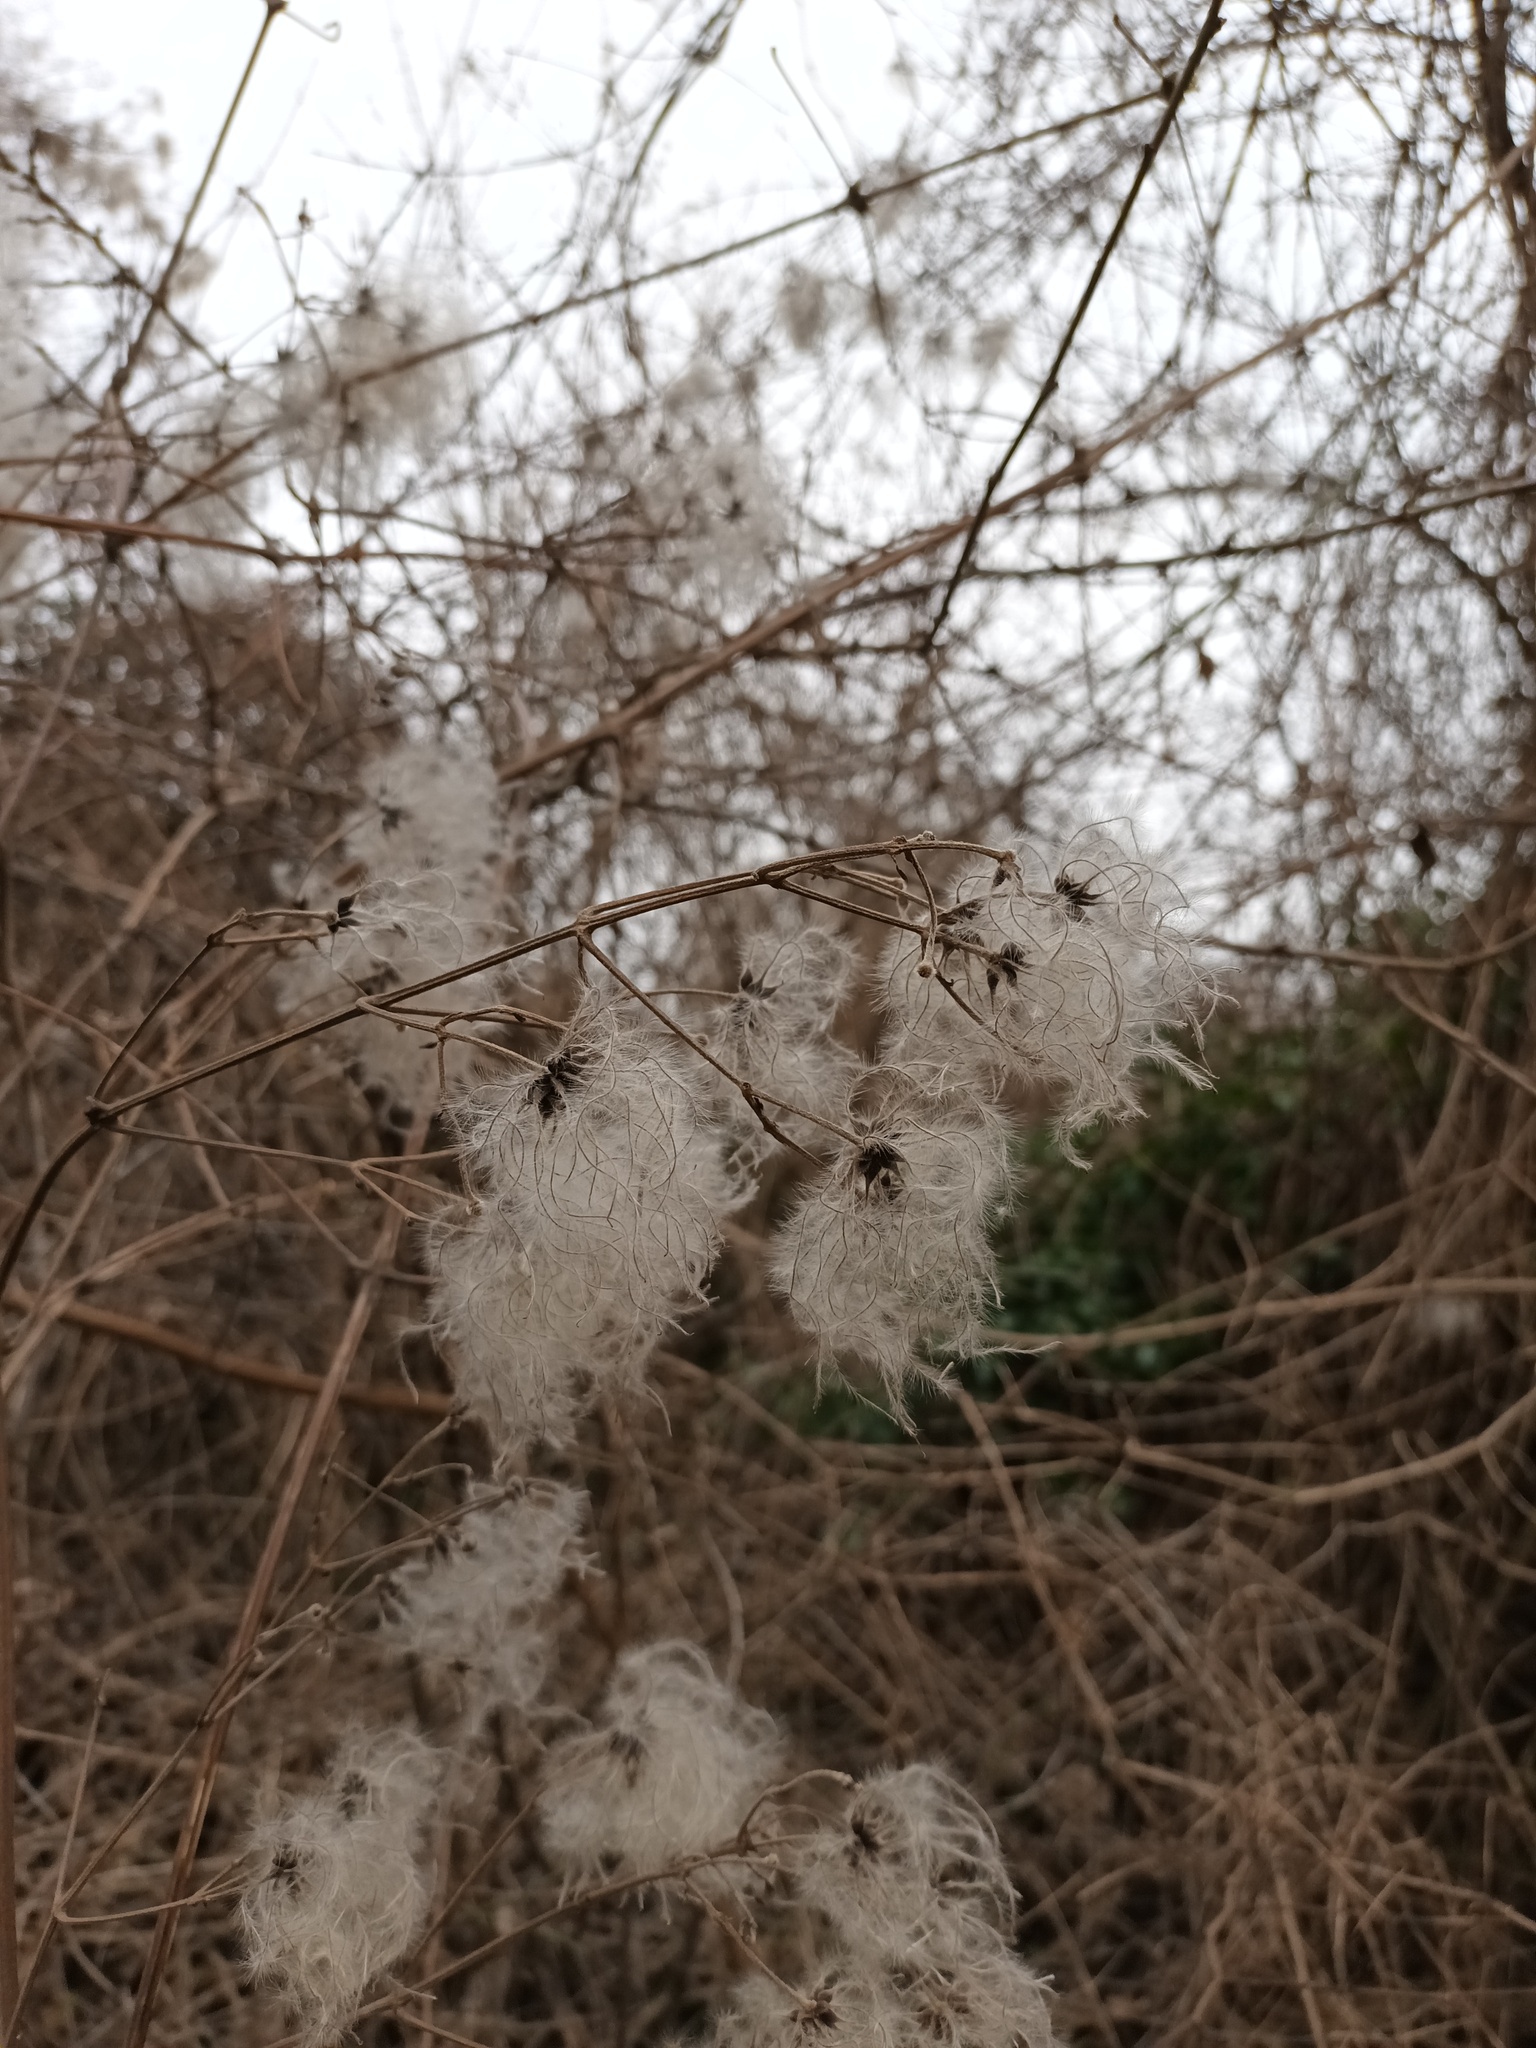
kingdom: Plantae
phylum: Tracheophyta
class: Magnoliopsida
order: Ranunculales
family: Ranunculaceae
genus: Clematis
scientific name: Clematis vitalba
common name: Evergreen clematis
